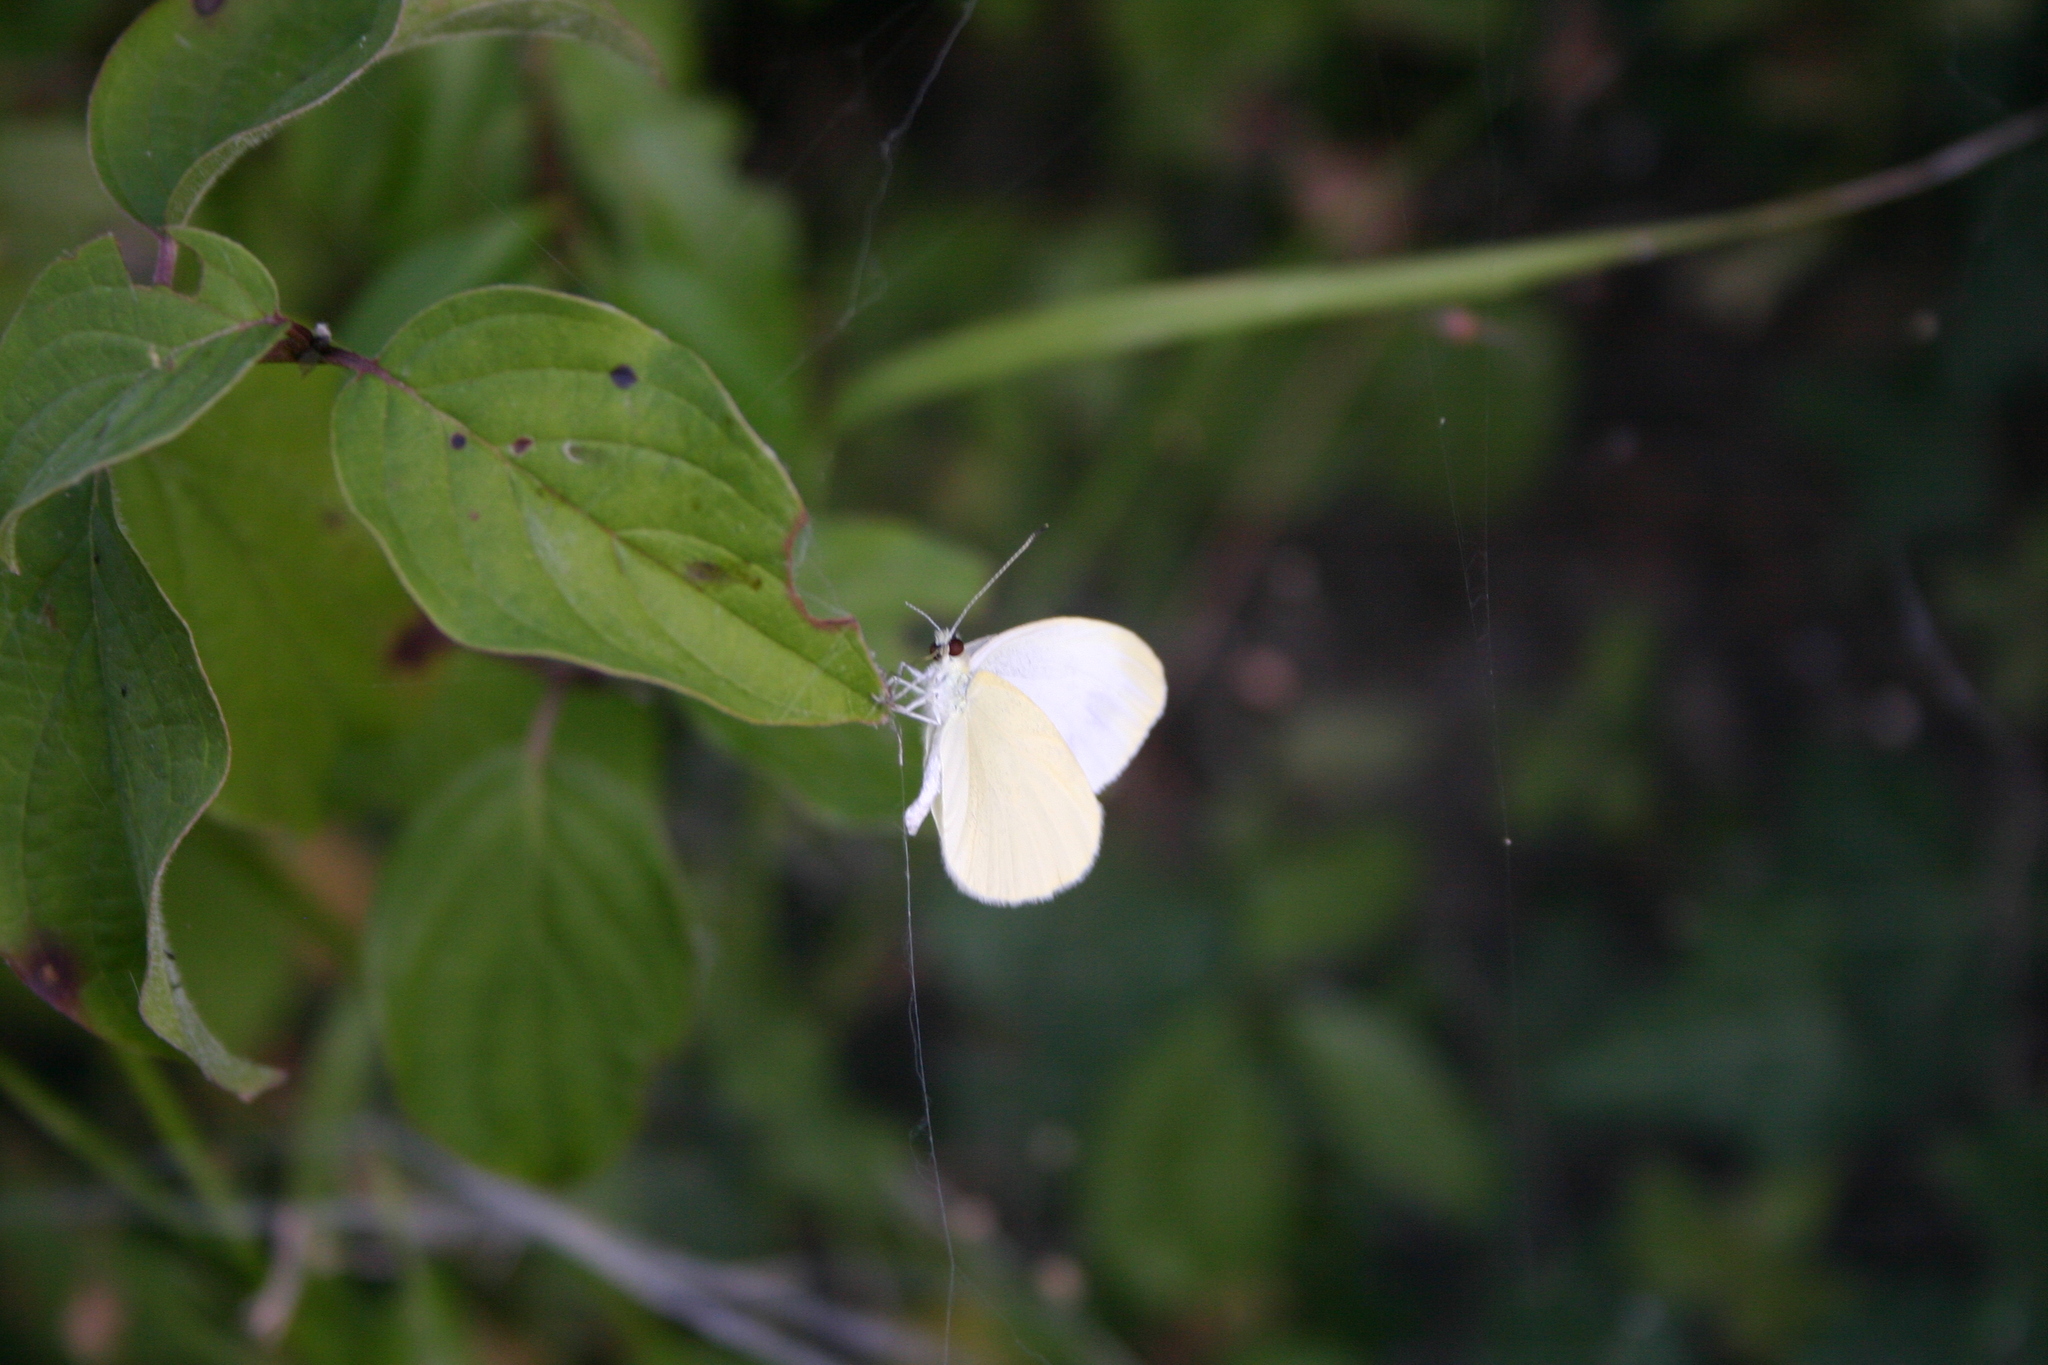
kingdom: Animalia
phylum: Arthropoda
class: Insecta
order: Lepidoptera
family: Pieridae
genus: Pieris
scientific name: Pieris ergane
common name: Mountain small white
